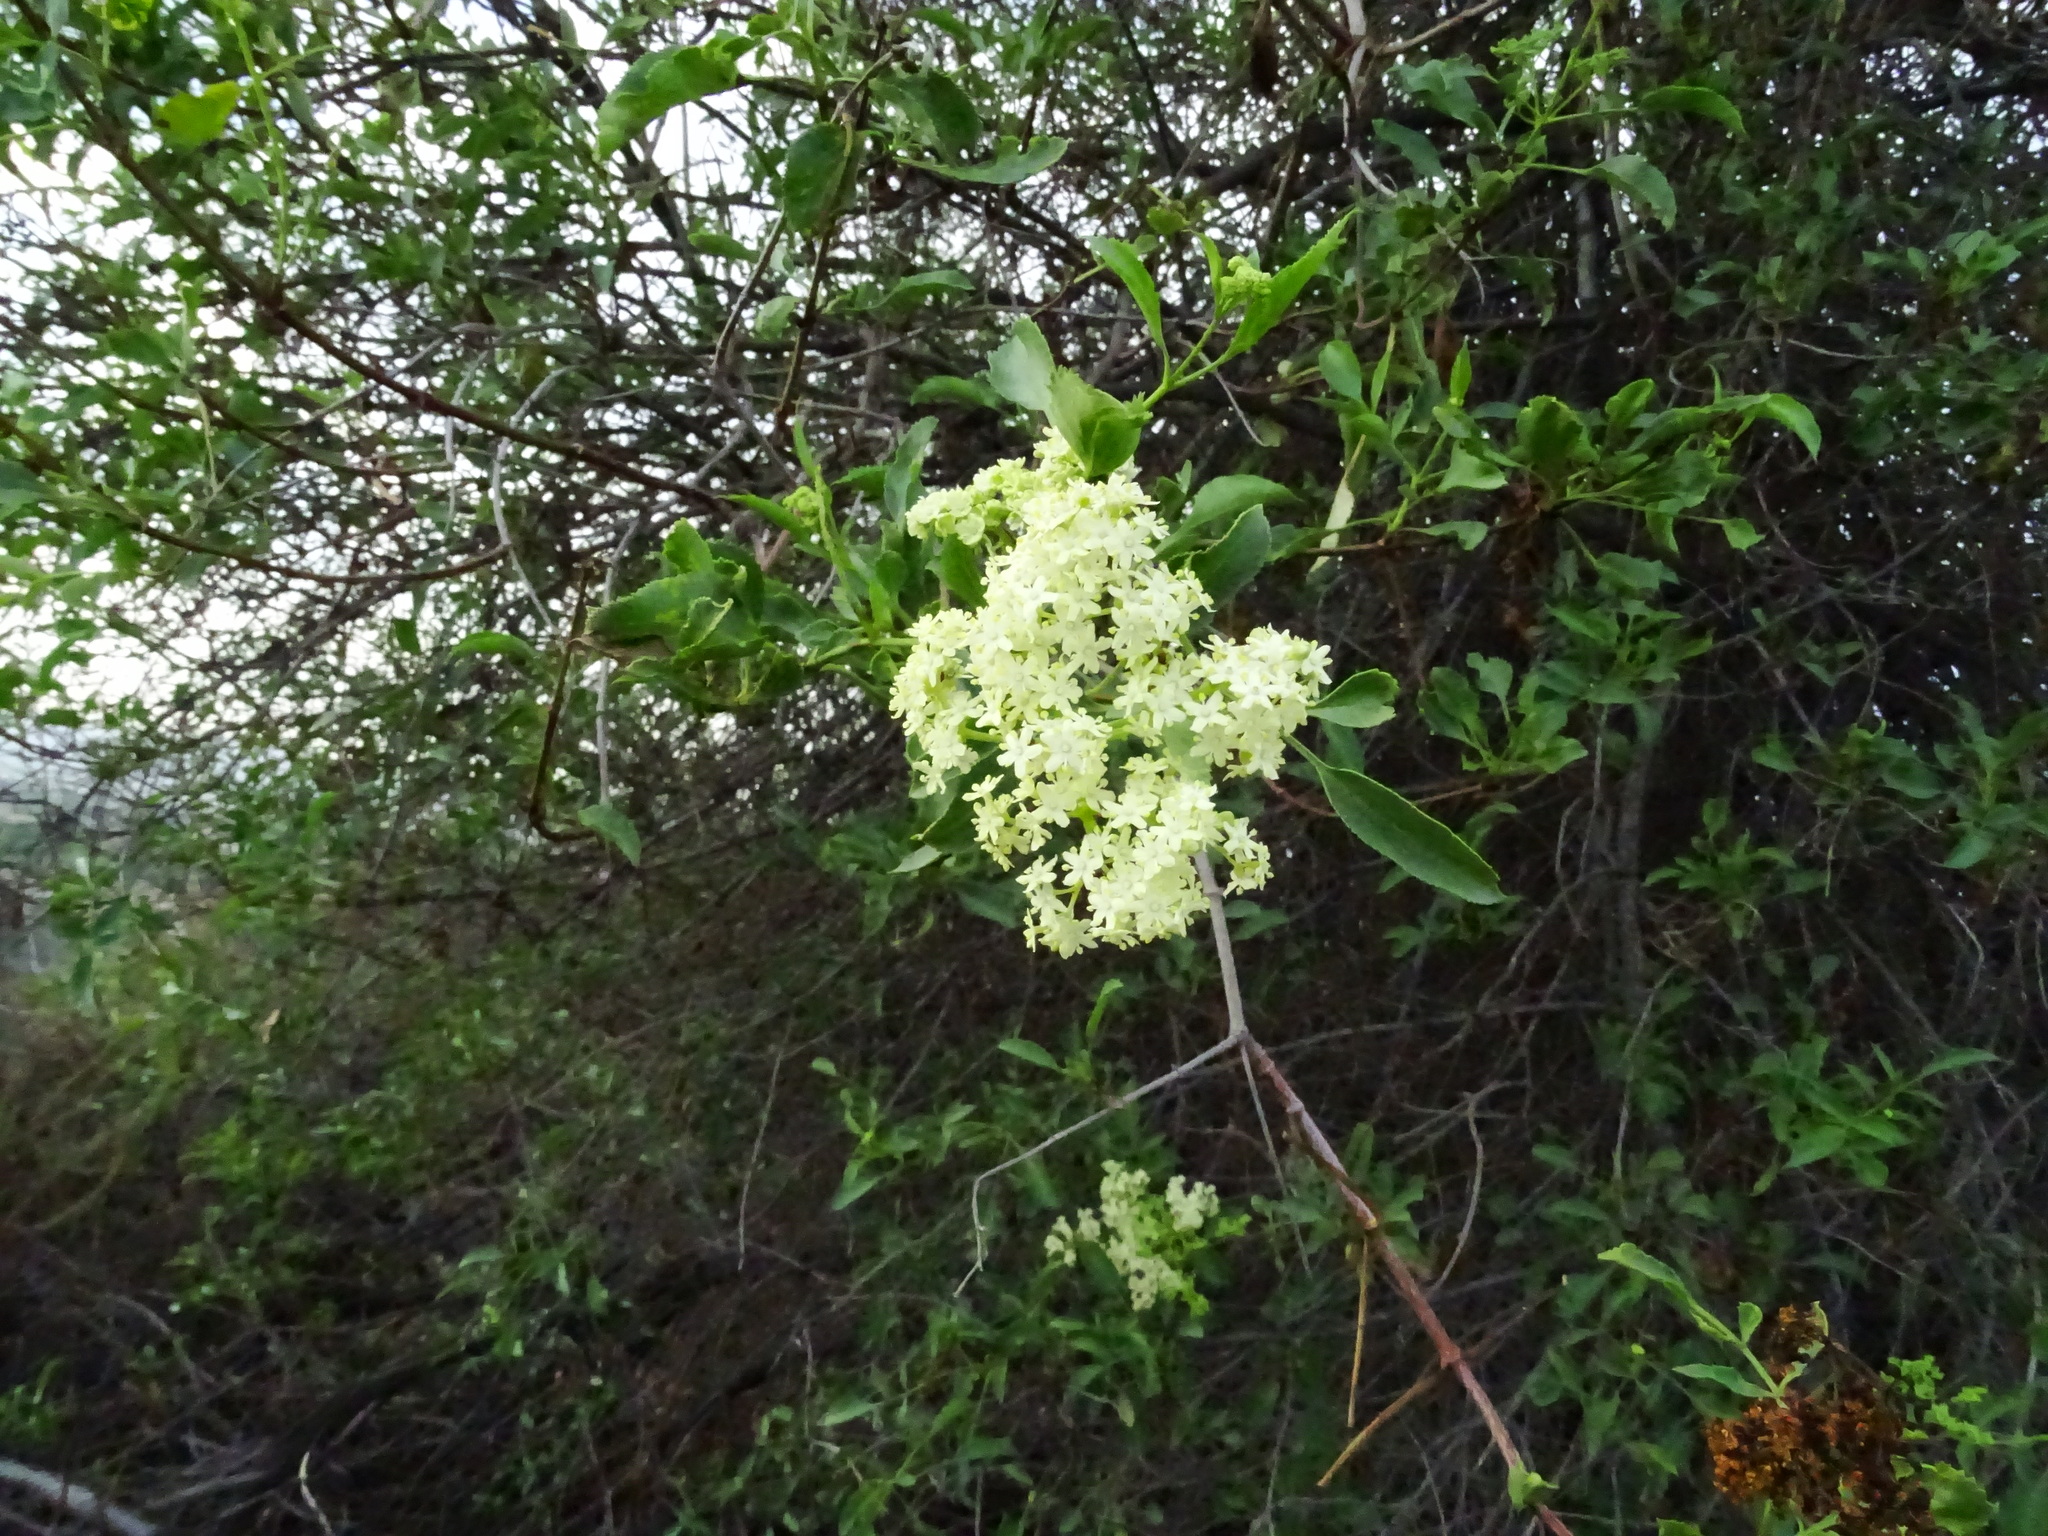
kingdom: Plantae
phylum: Tracheophyta
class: Magnoliopsida
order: Dipsacales
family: Viburnaceae
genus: Sambucus
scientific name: Sambucus cerulea
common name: Blue elder
